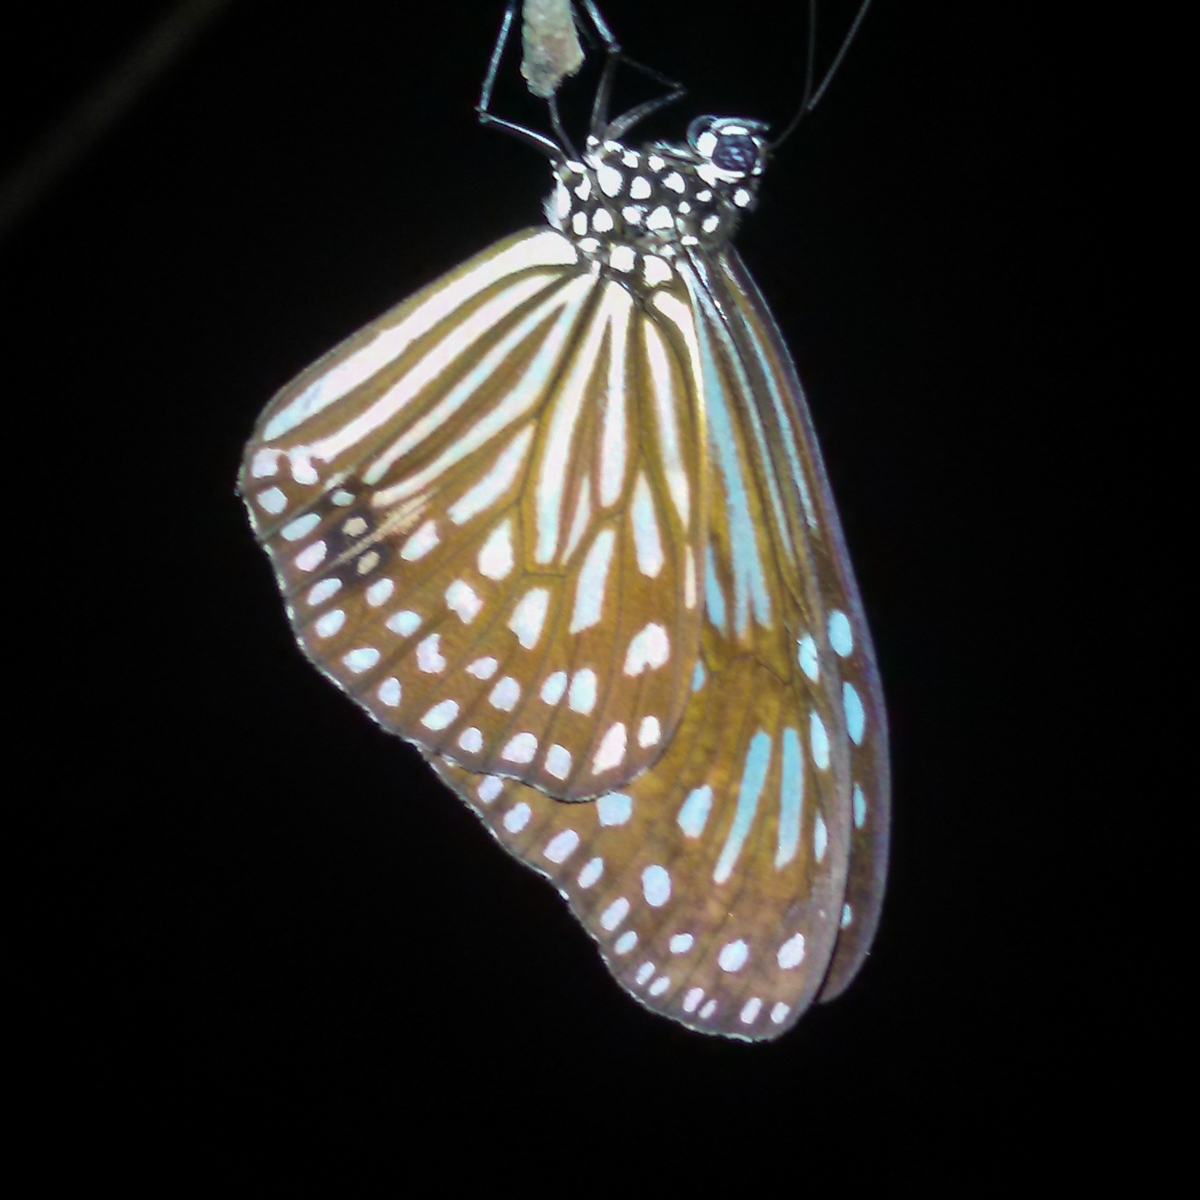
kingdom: Animalia
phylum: Arthropoda
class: Insecta
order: Lepidoptera
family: Nymphalidae
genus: Parantica
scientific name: Parantica agleoides
